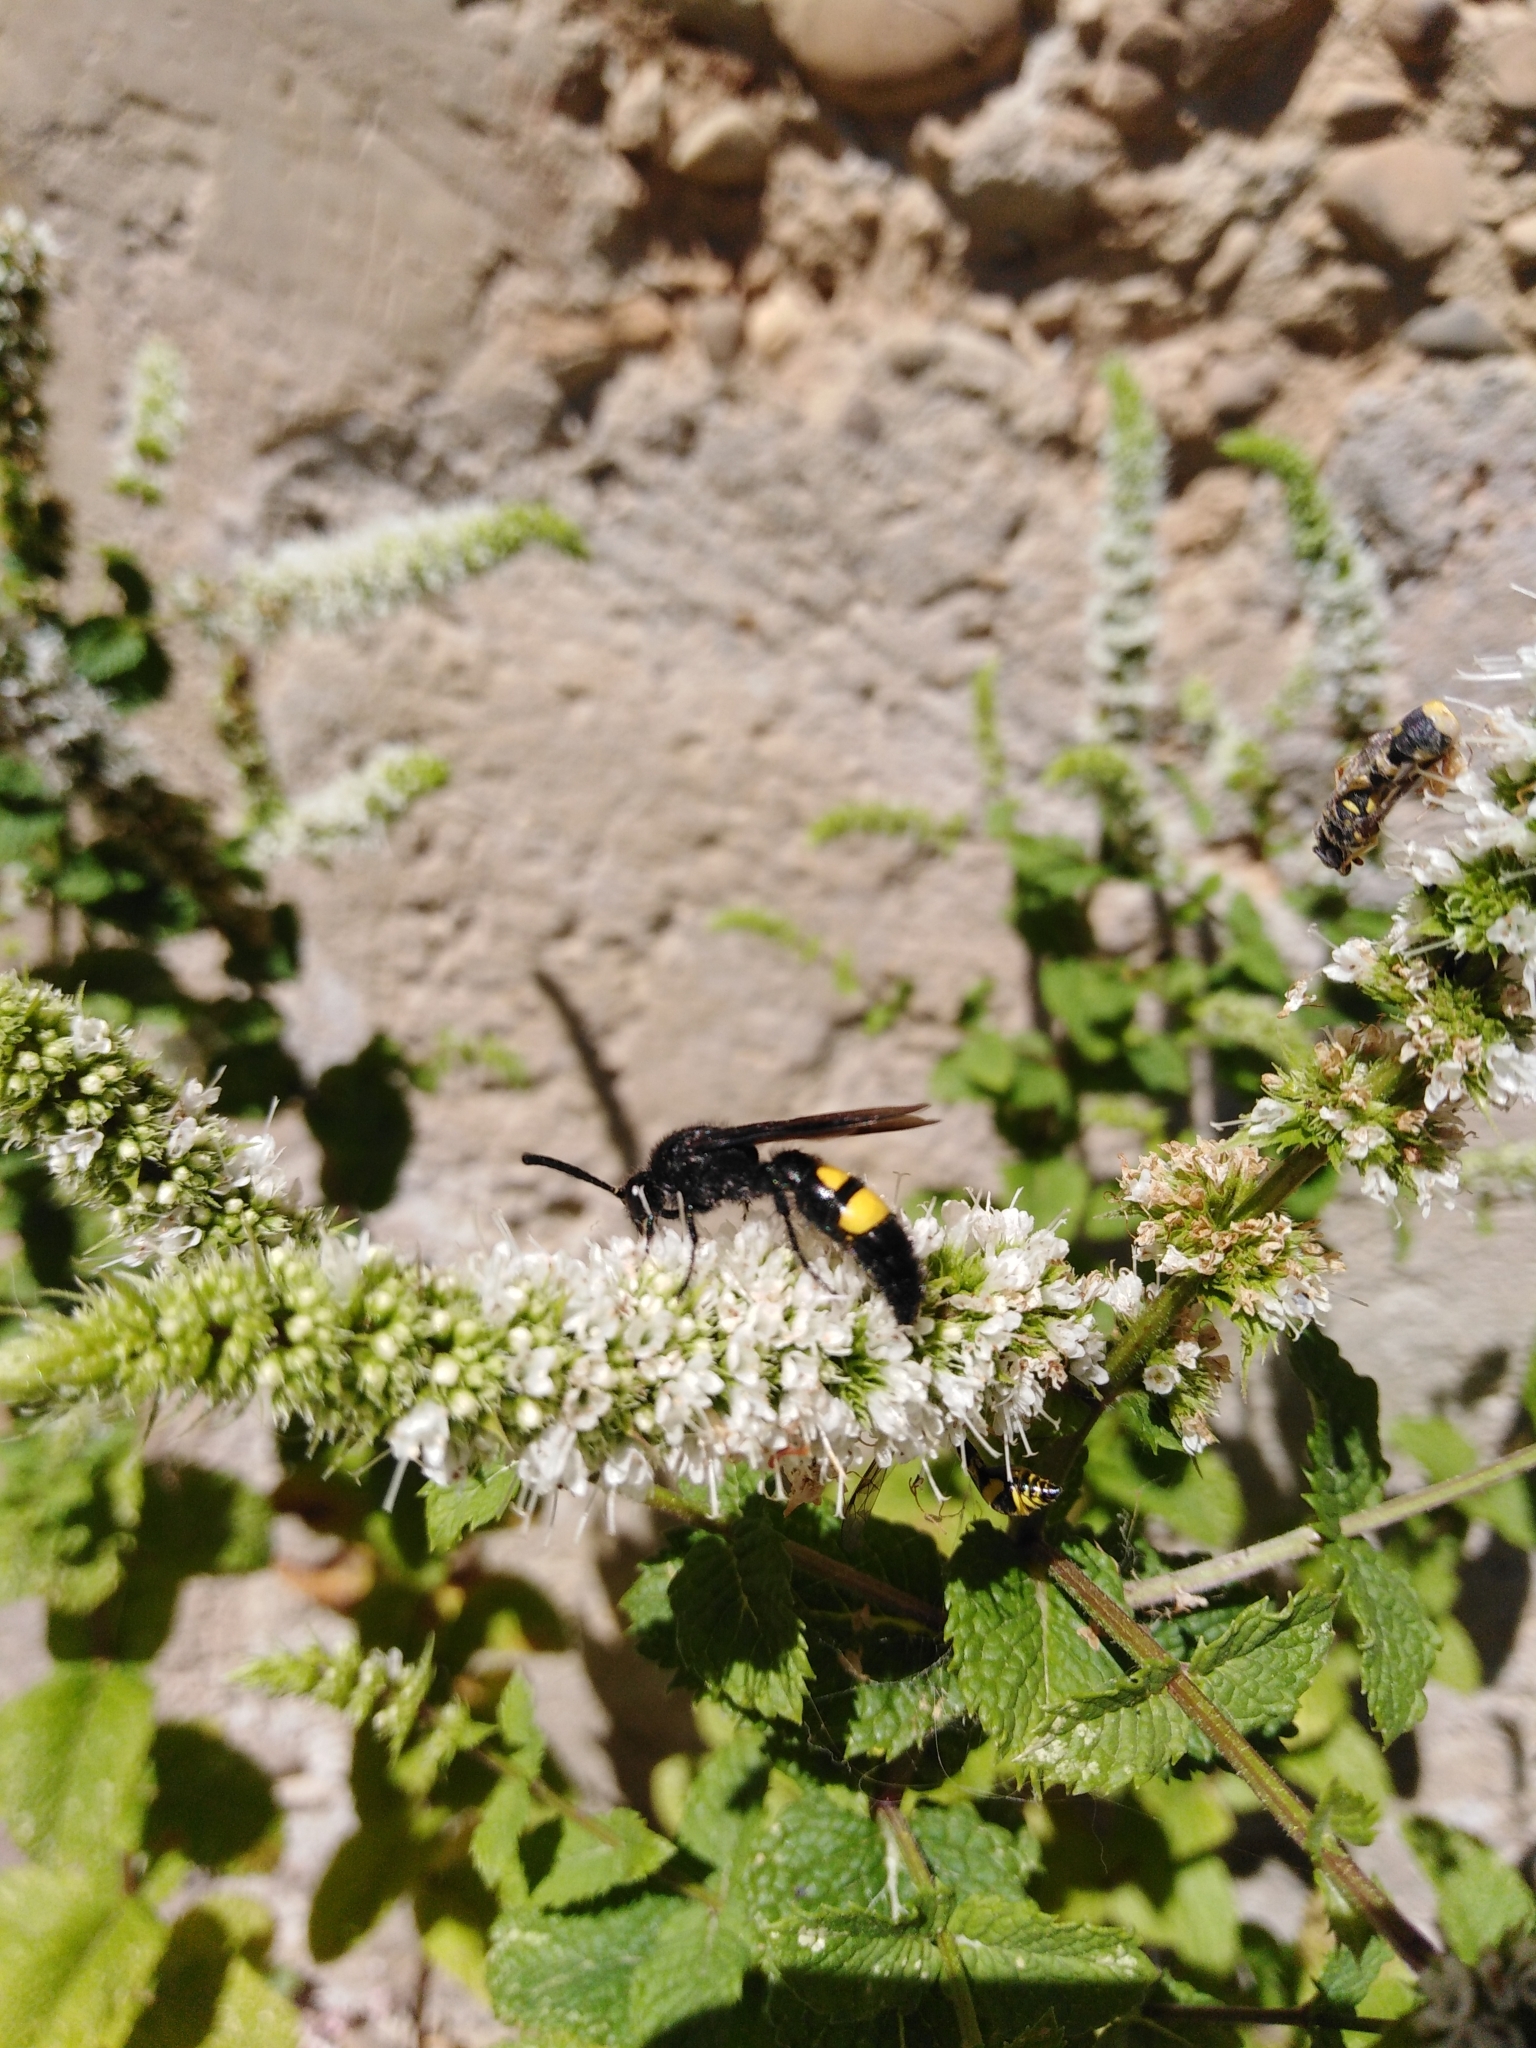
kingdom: Animalia
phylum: Arthropoda
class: Insecta
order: Hymenoptera
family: Scoliidae
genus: Scolia
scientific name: Scolia hirta
